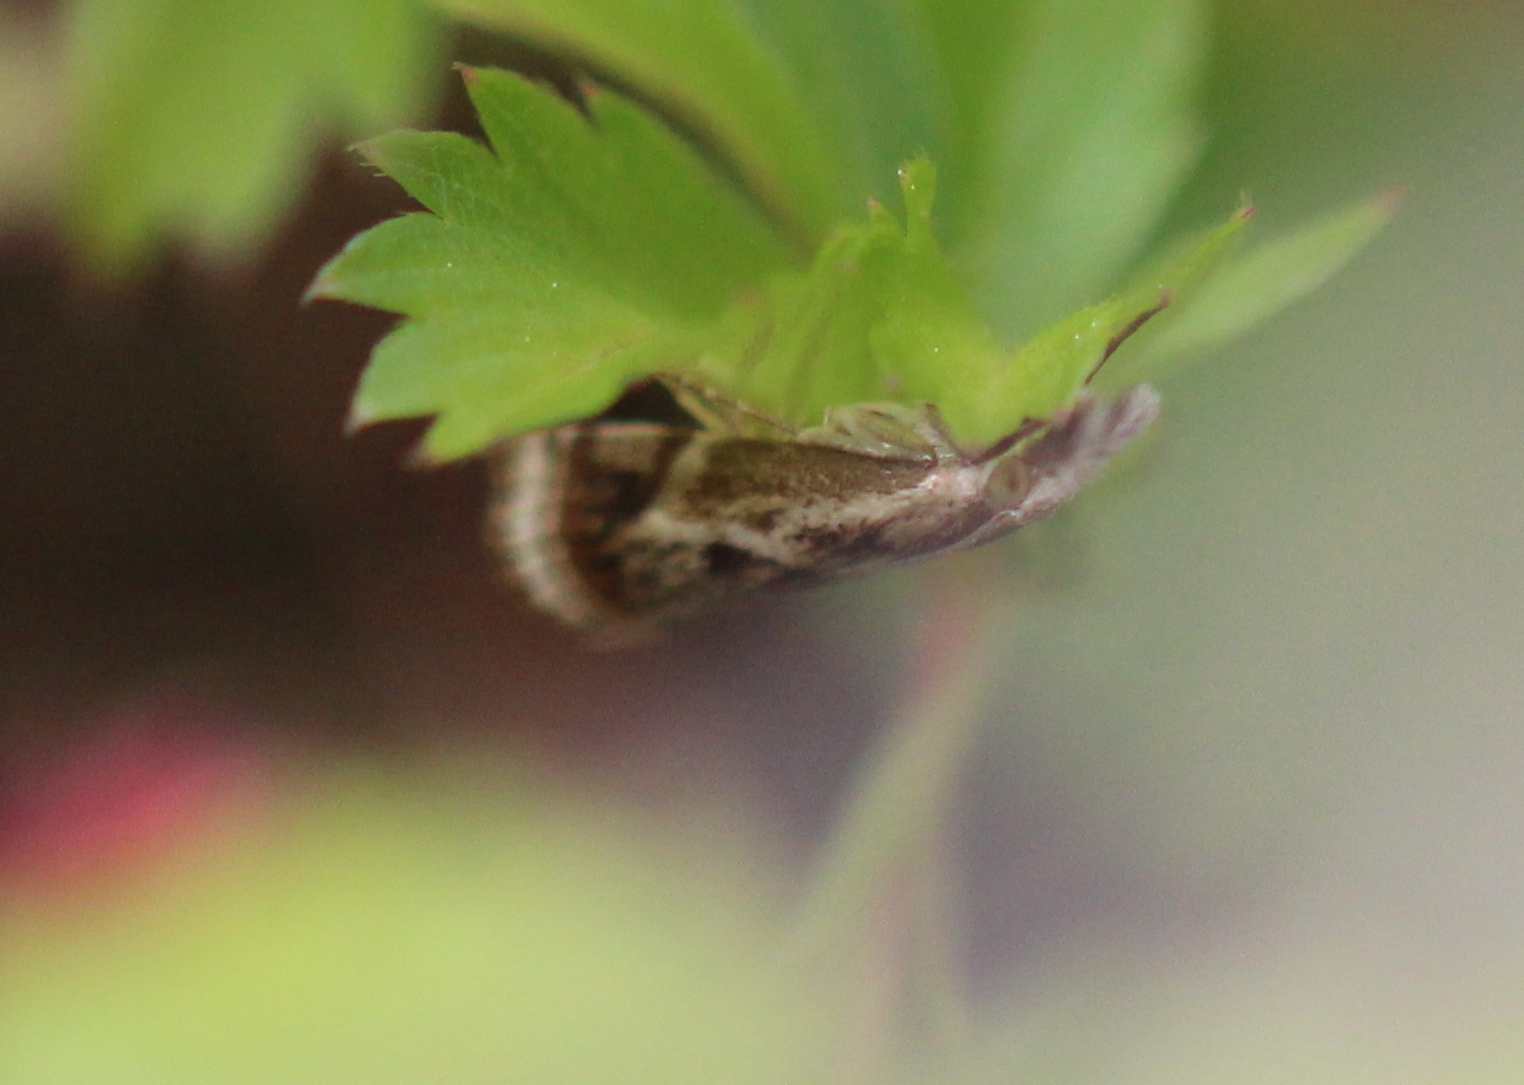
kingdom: Animalia
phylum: Arthropoda
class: Insecta
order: Lepidoptera
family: Crambidae
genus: Microcrambus
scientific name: Microcrambus elegans
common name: Elegant grass-veneer
